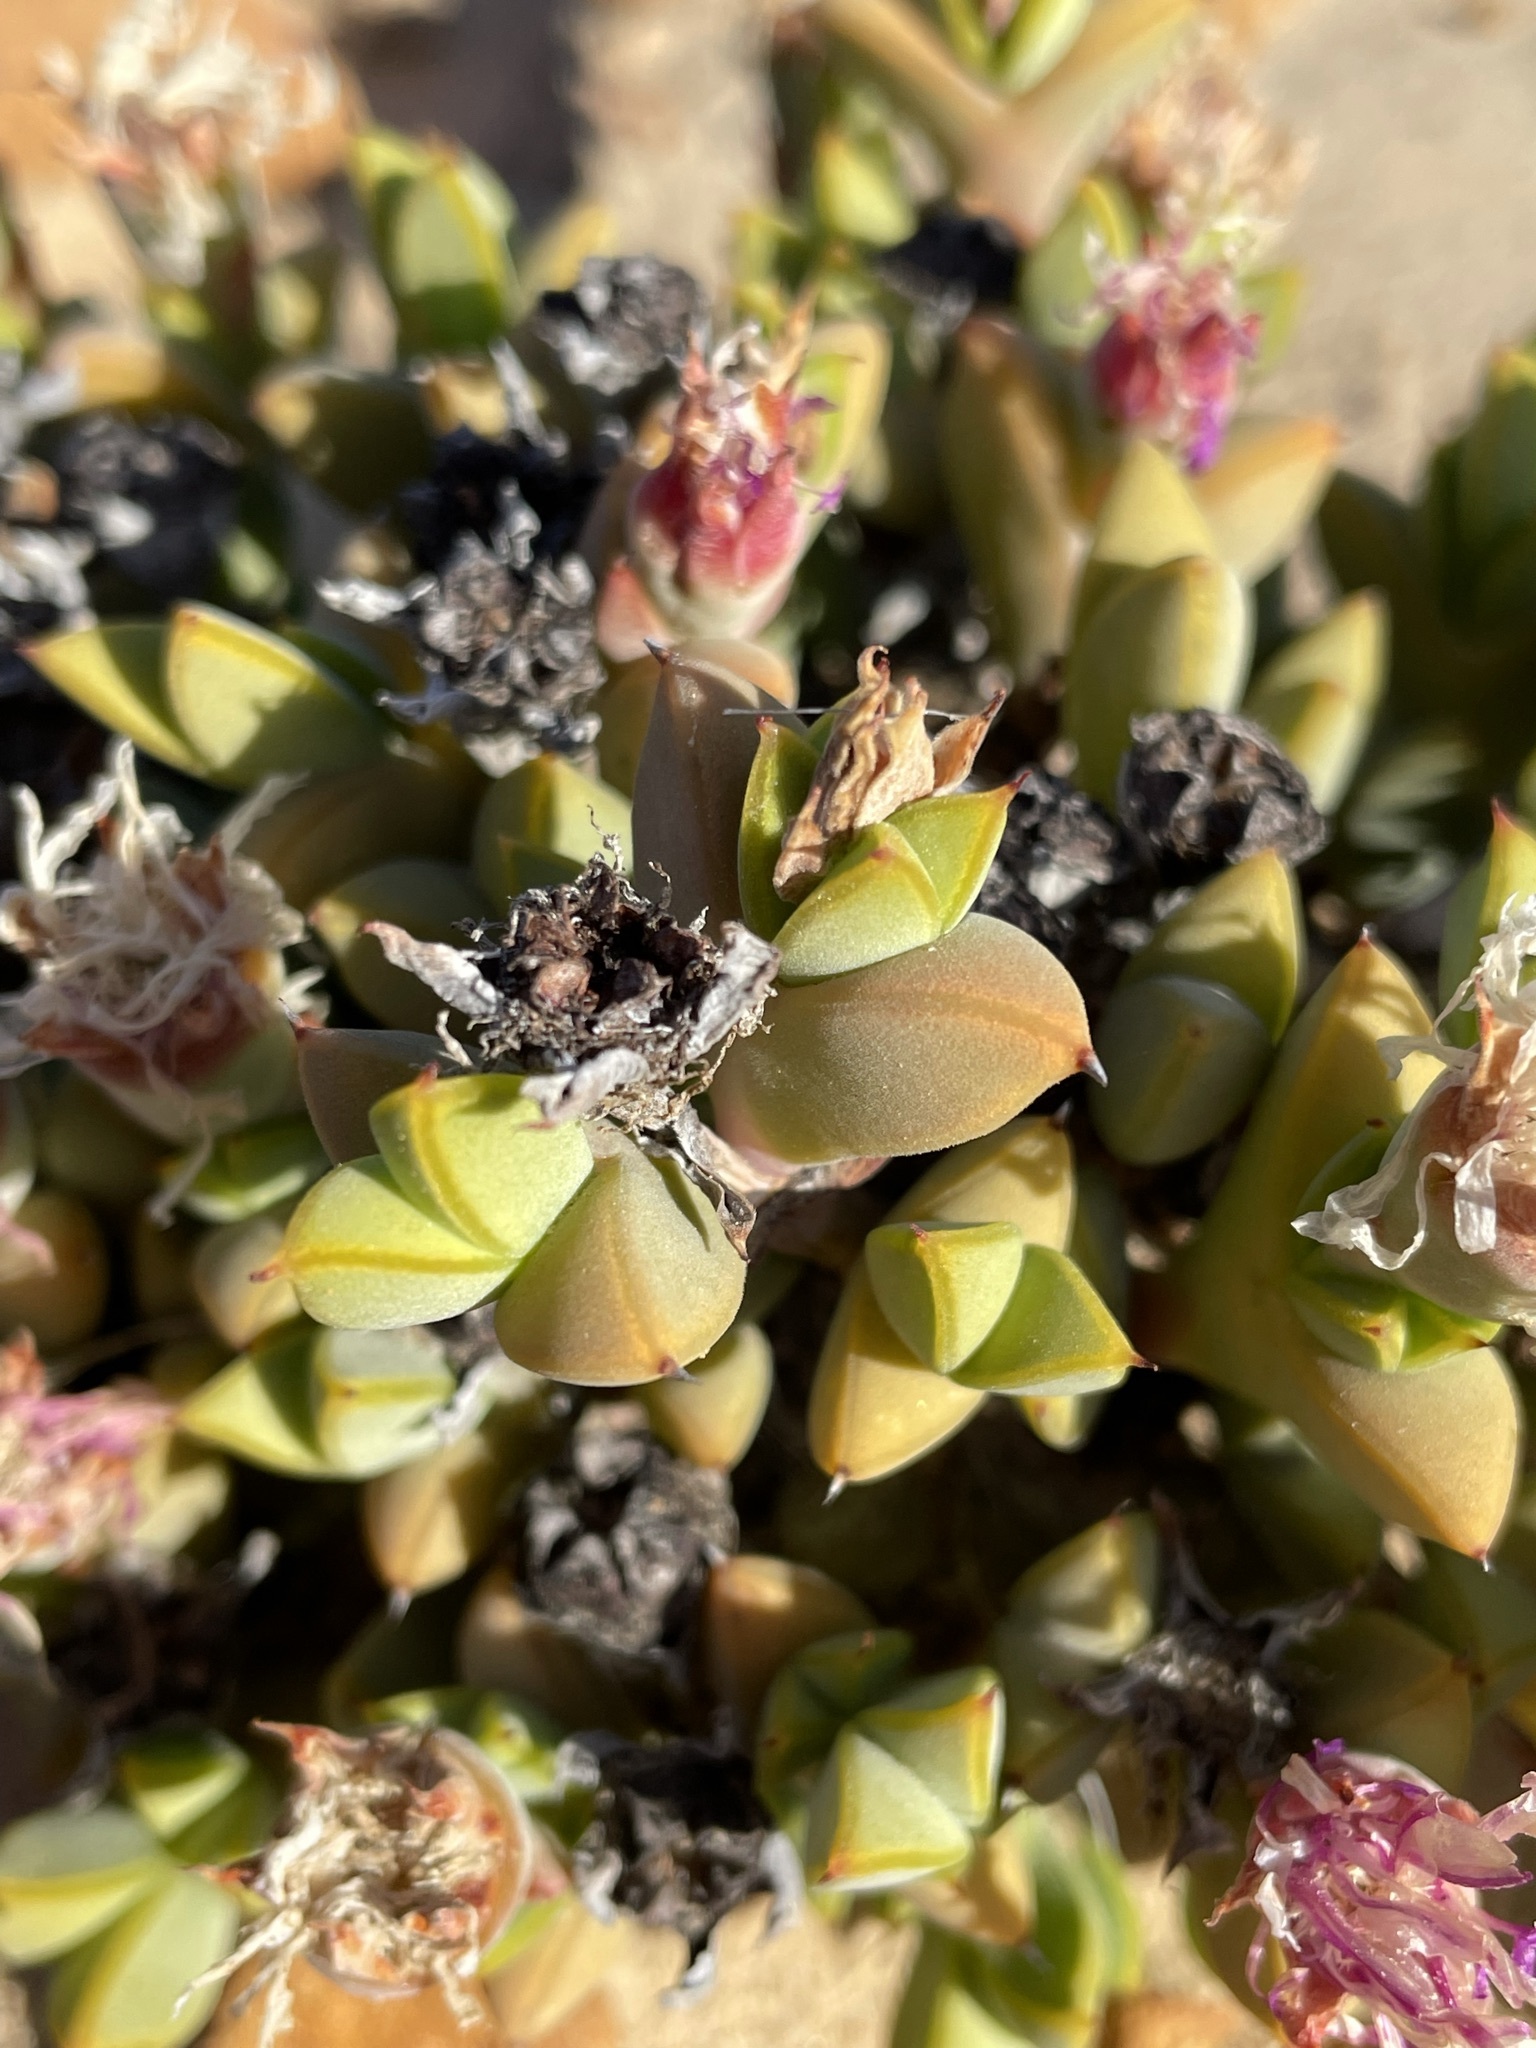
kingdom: Plantae
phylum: Tracheophyta
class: Magnoliopsida
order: Caryophyllales
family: Aizoaceae
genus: Braunsia
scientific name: Braunsia apiculata
